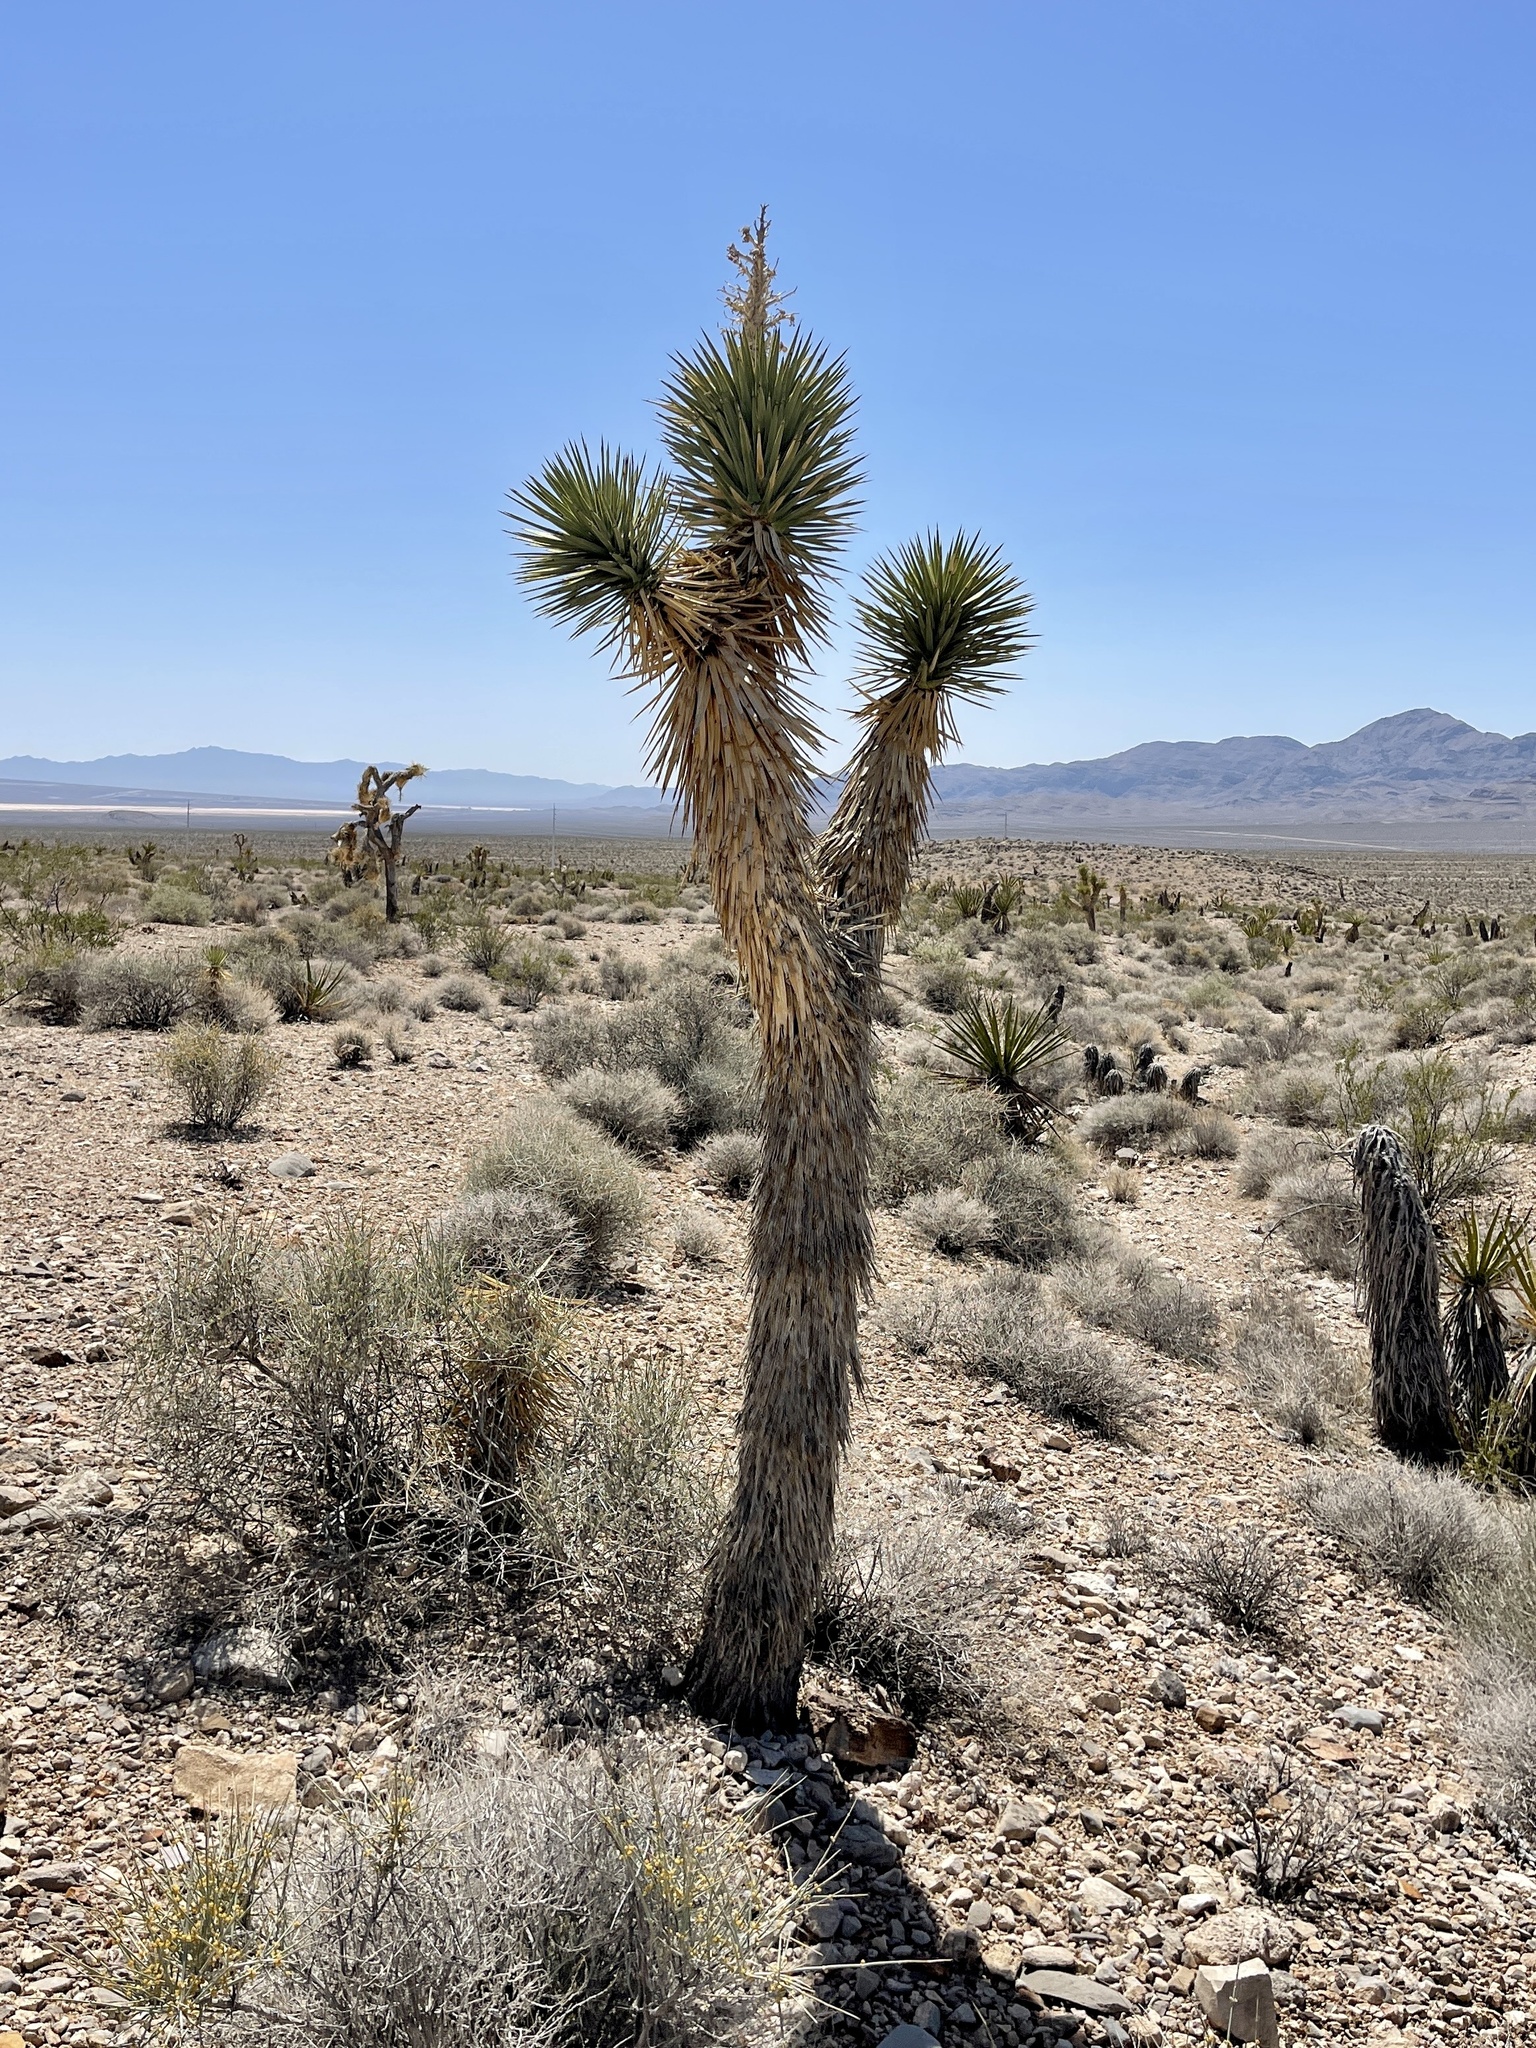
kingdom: Plantae
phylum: Tracheophyta
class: Liliopsida
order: Asparagales
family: Asparagaceae
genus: Yucca
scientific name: Yucca brevifolia
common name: Joshua tree
